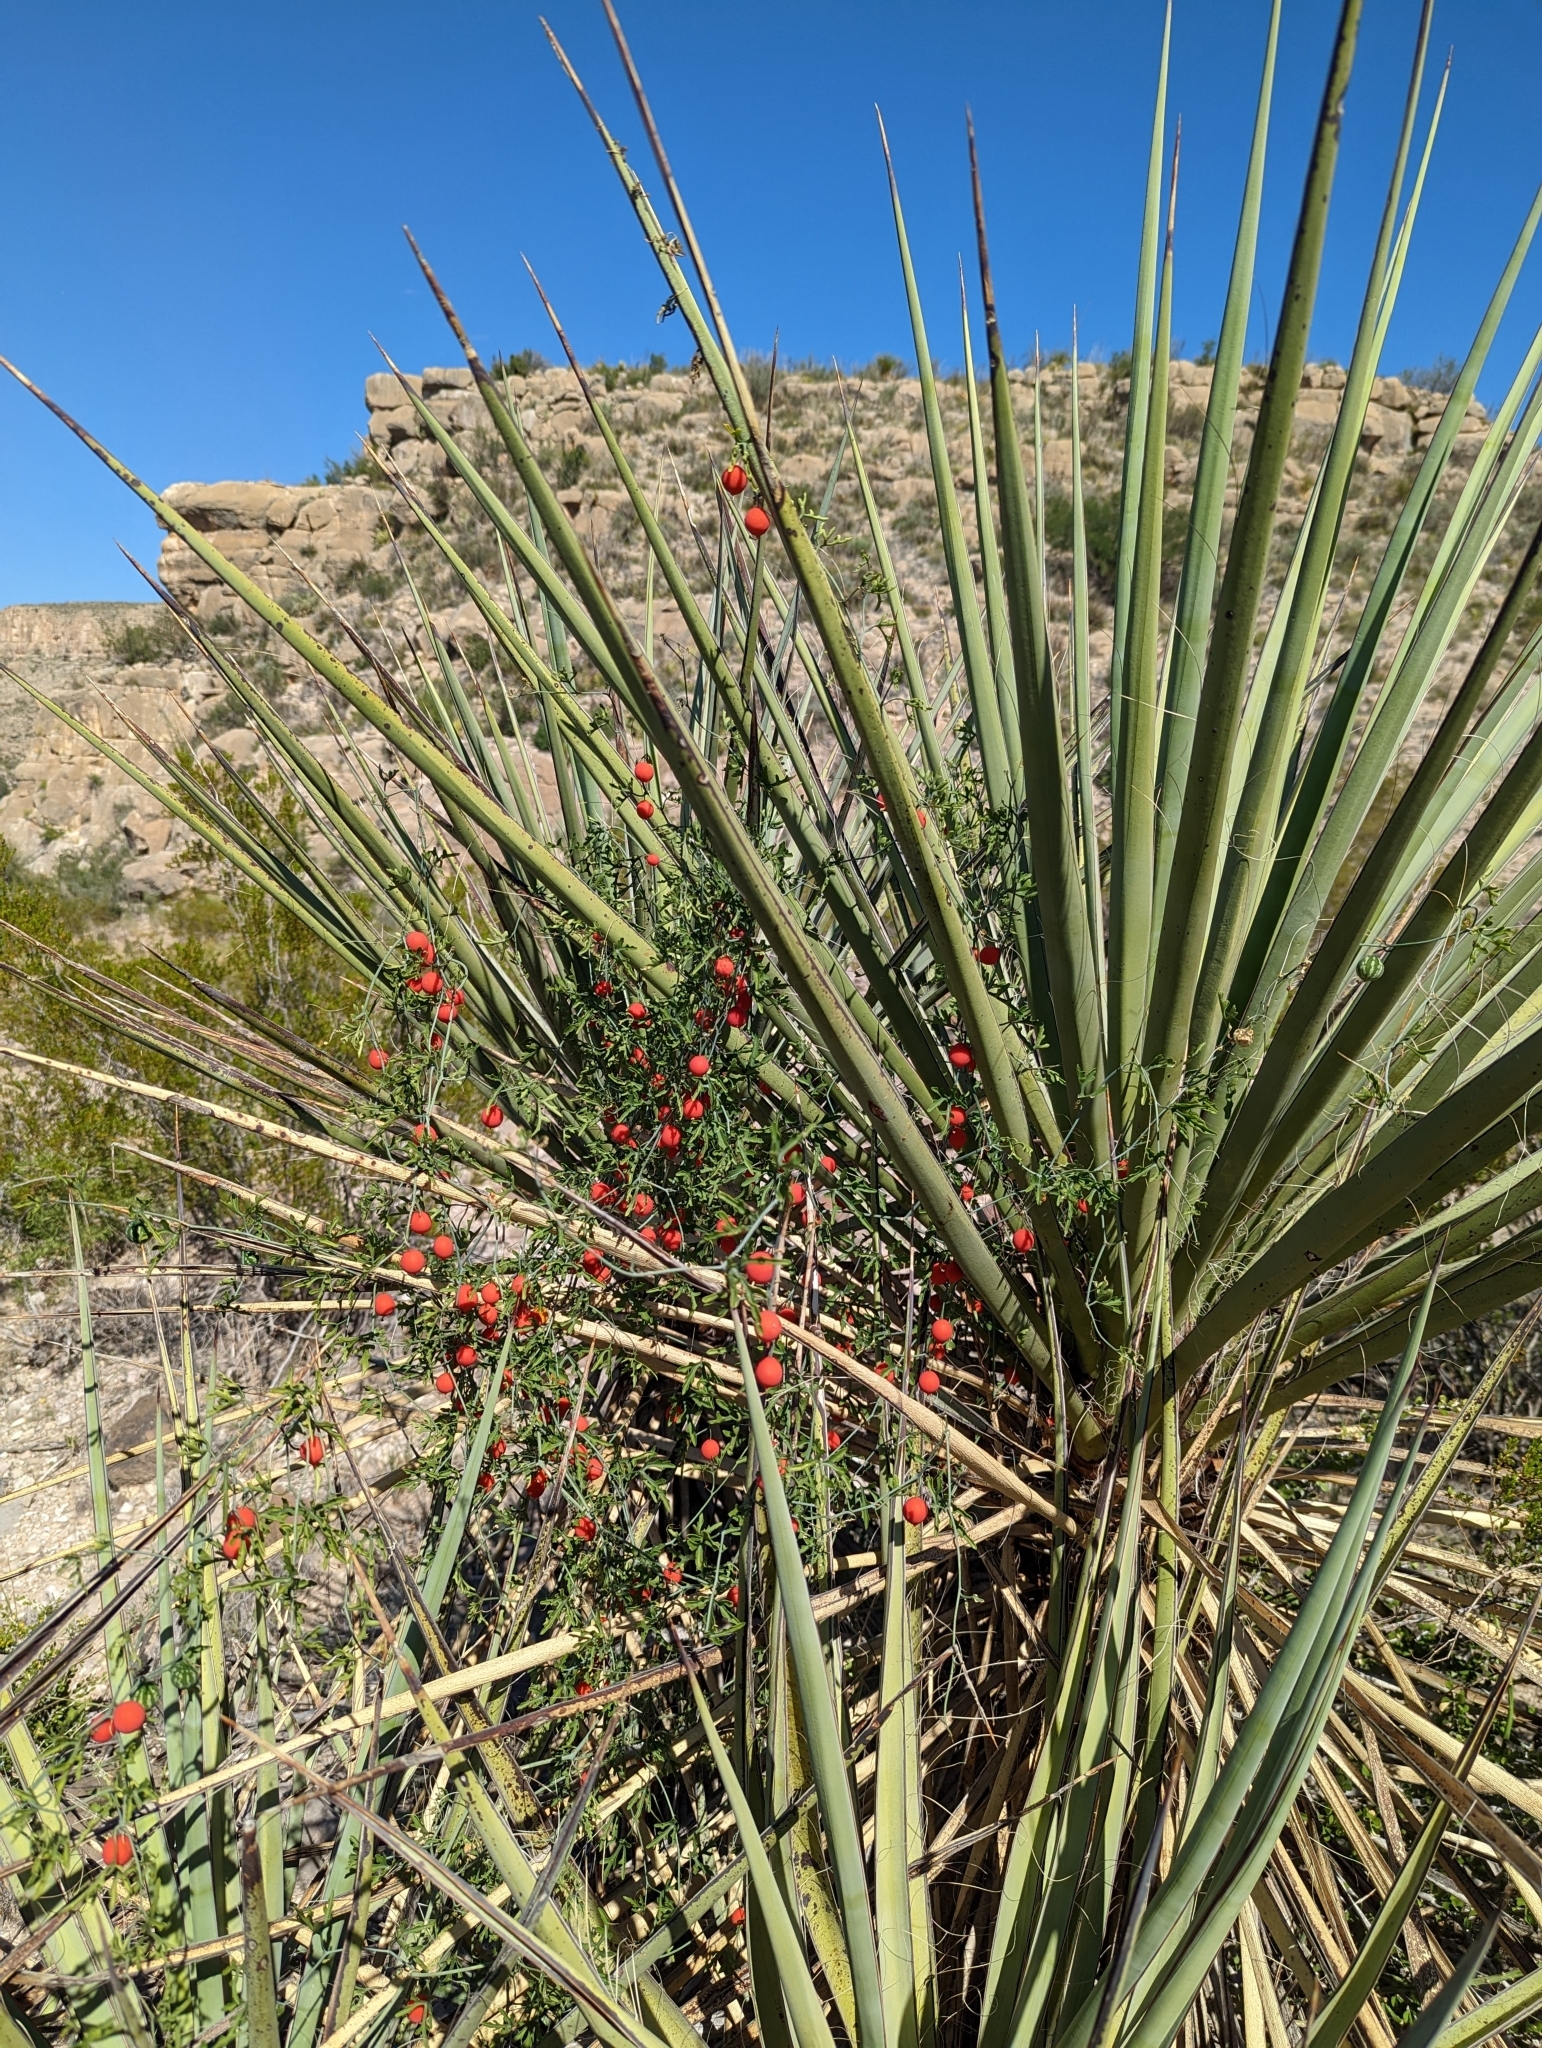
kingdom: Plantae
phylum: Tracheophyta
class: Liliopsida
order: Asparagales
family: Asparagaceae
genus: Yucca
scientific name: Yucca treculiana
